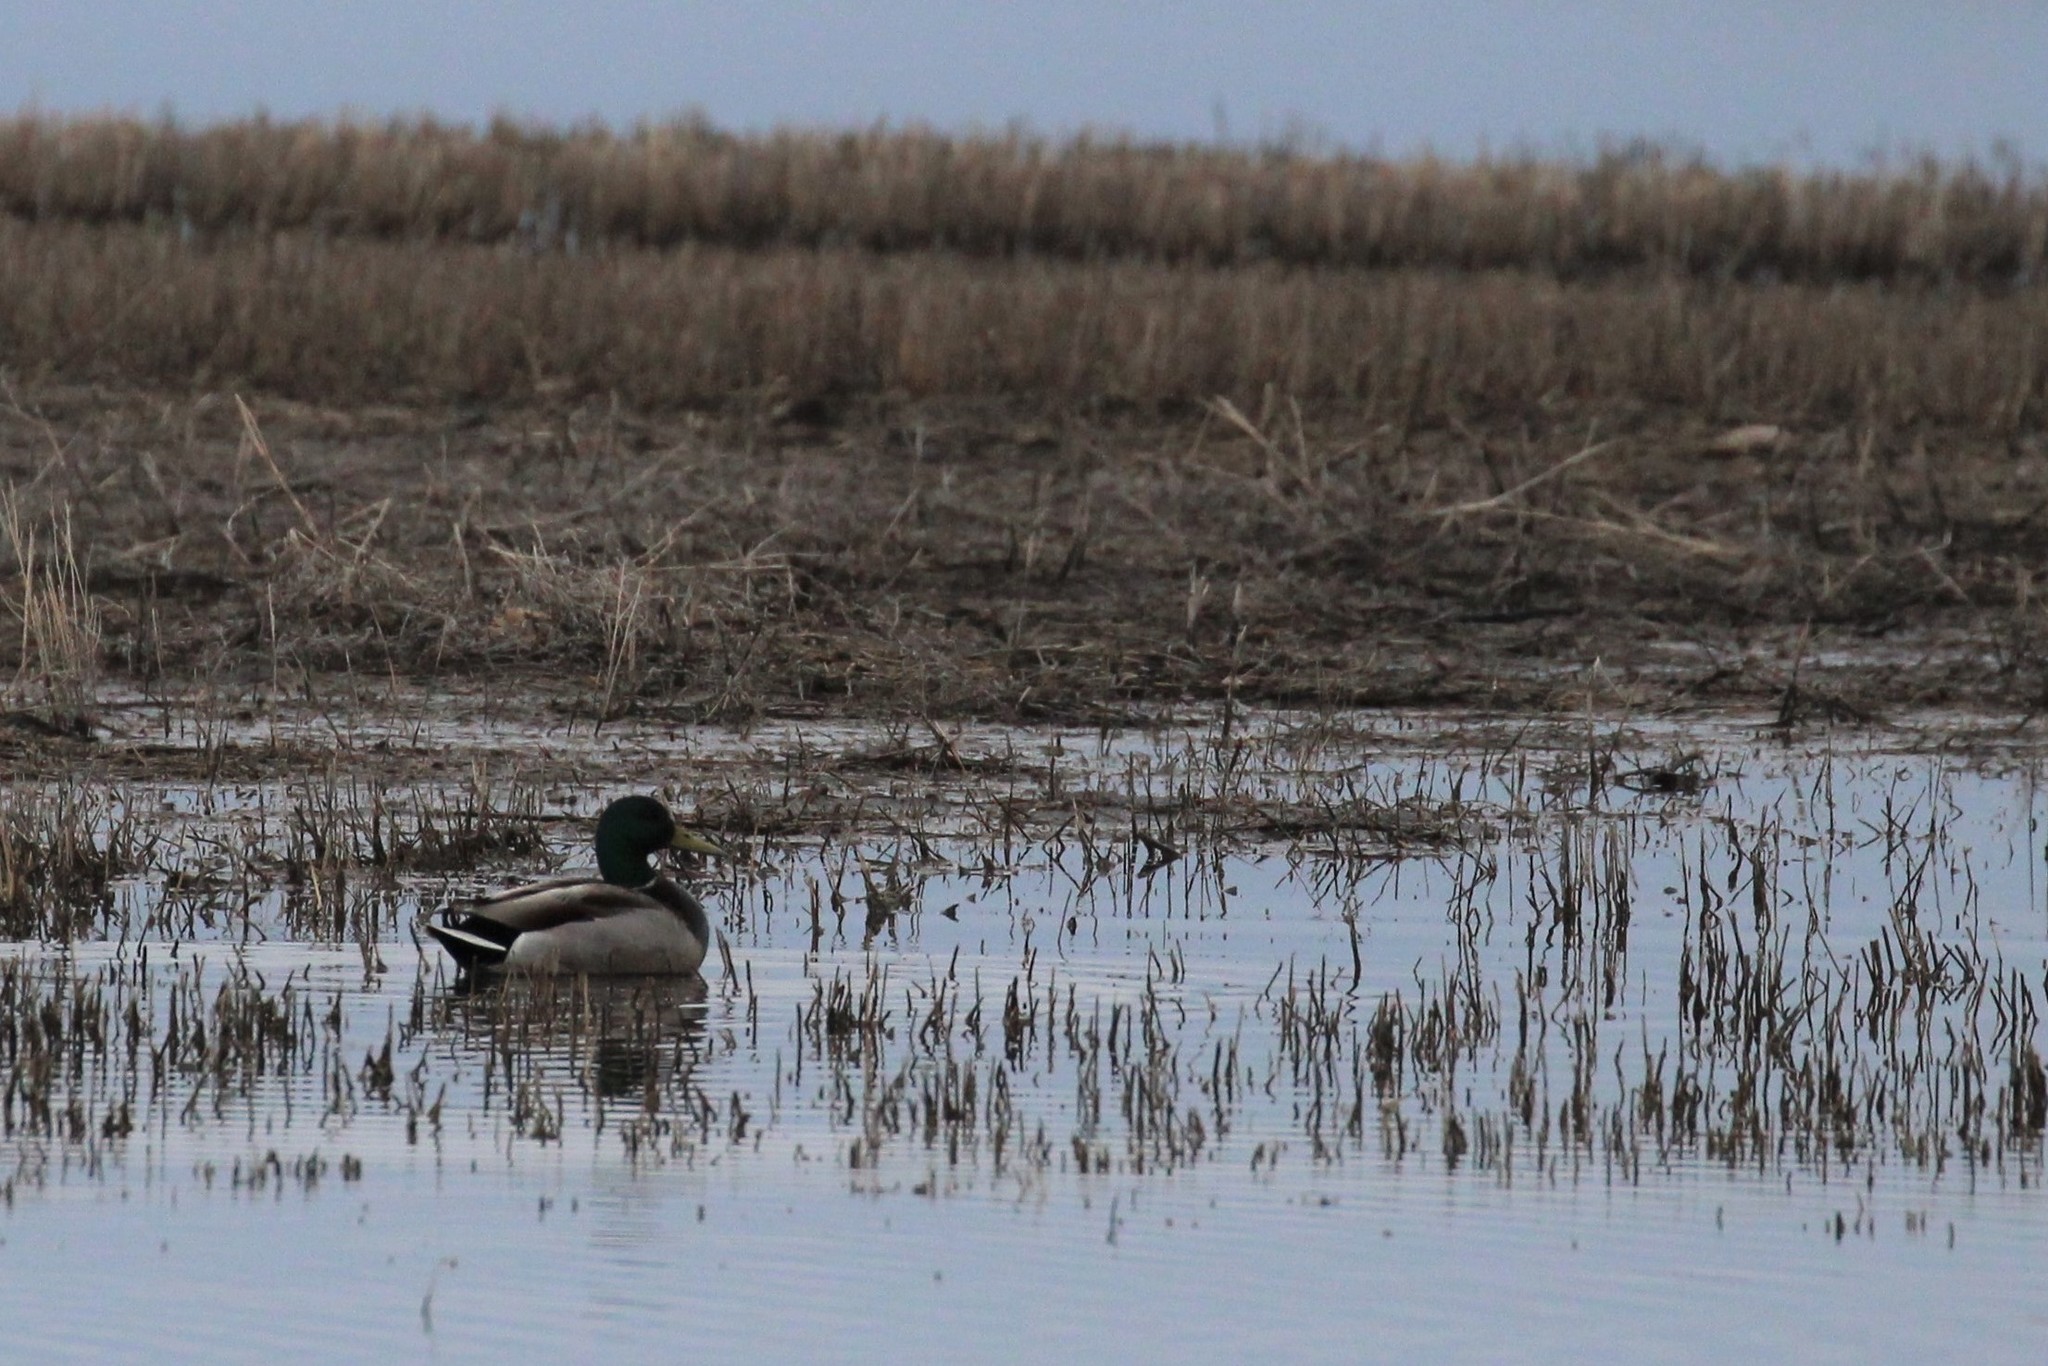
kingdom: Animalia
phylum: Chordata
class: Aves
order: Anseriformes
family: Anatidae
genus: Anas
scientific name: Anas platyrhynchos
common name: Mallard
